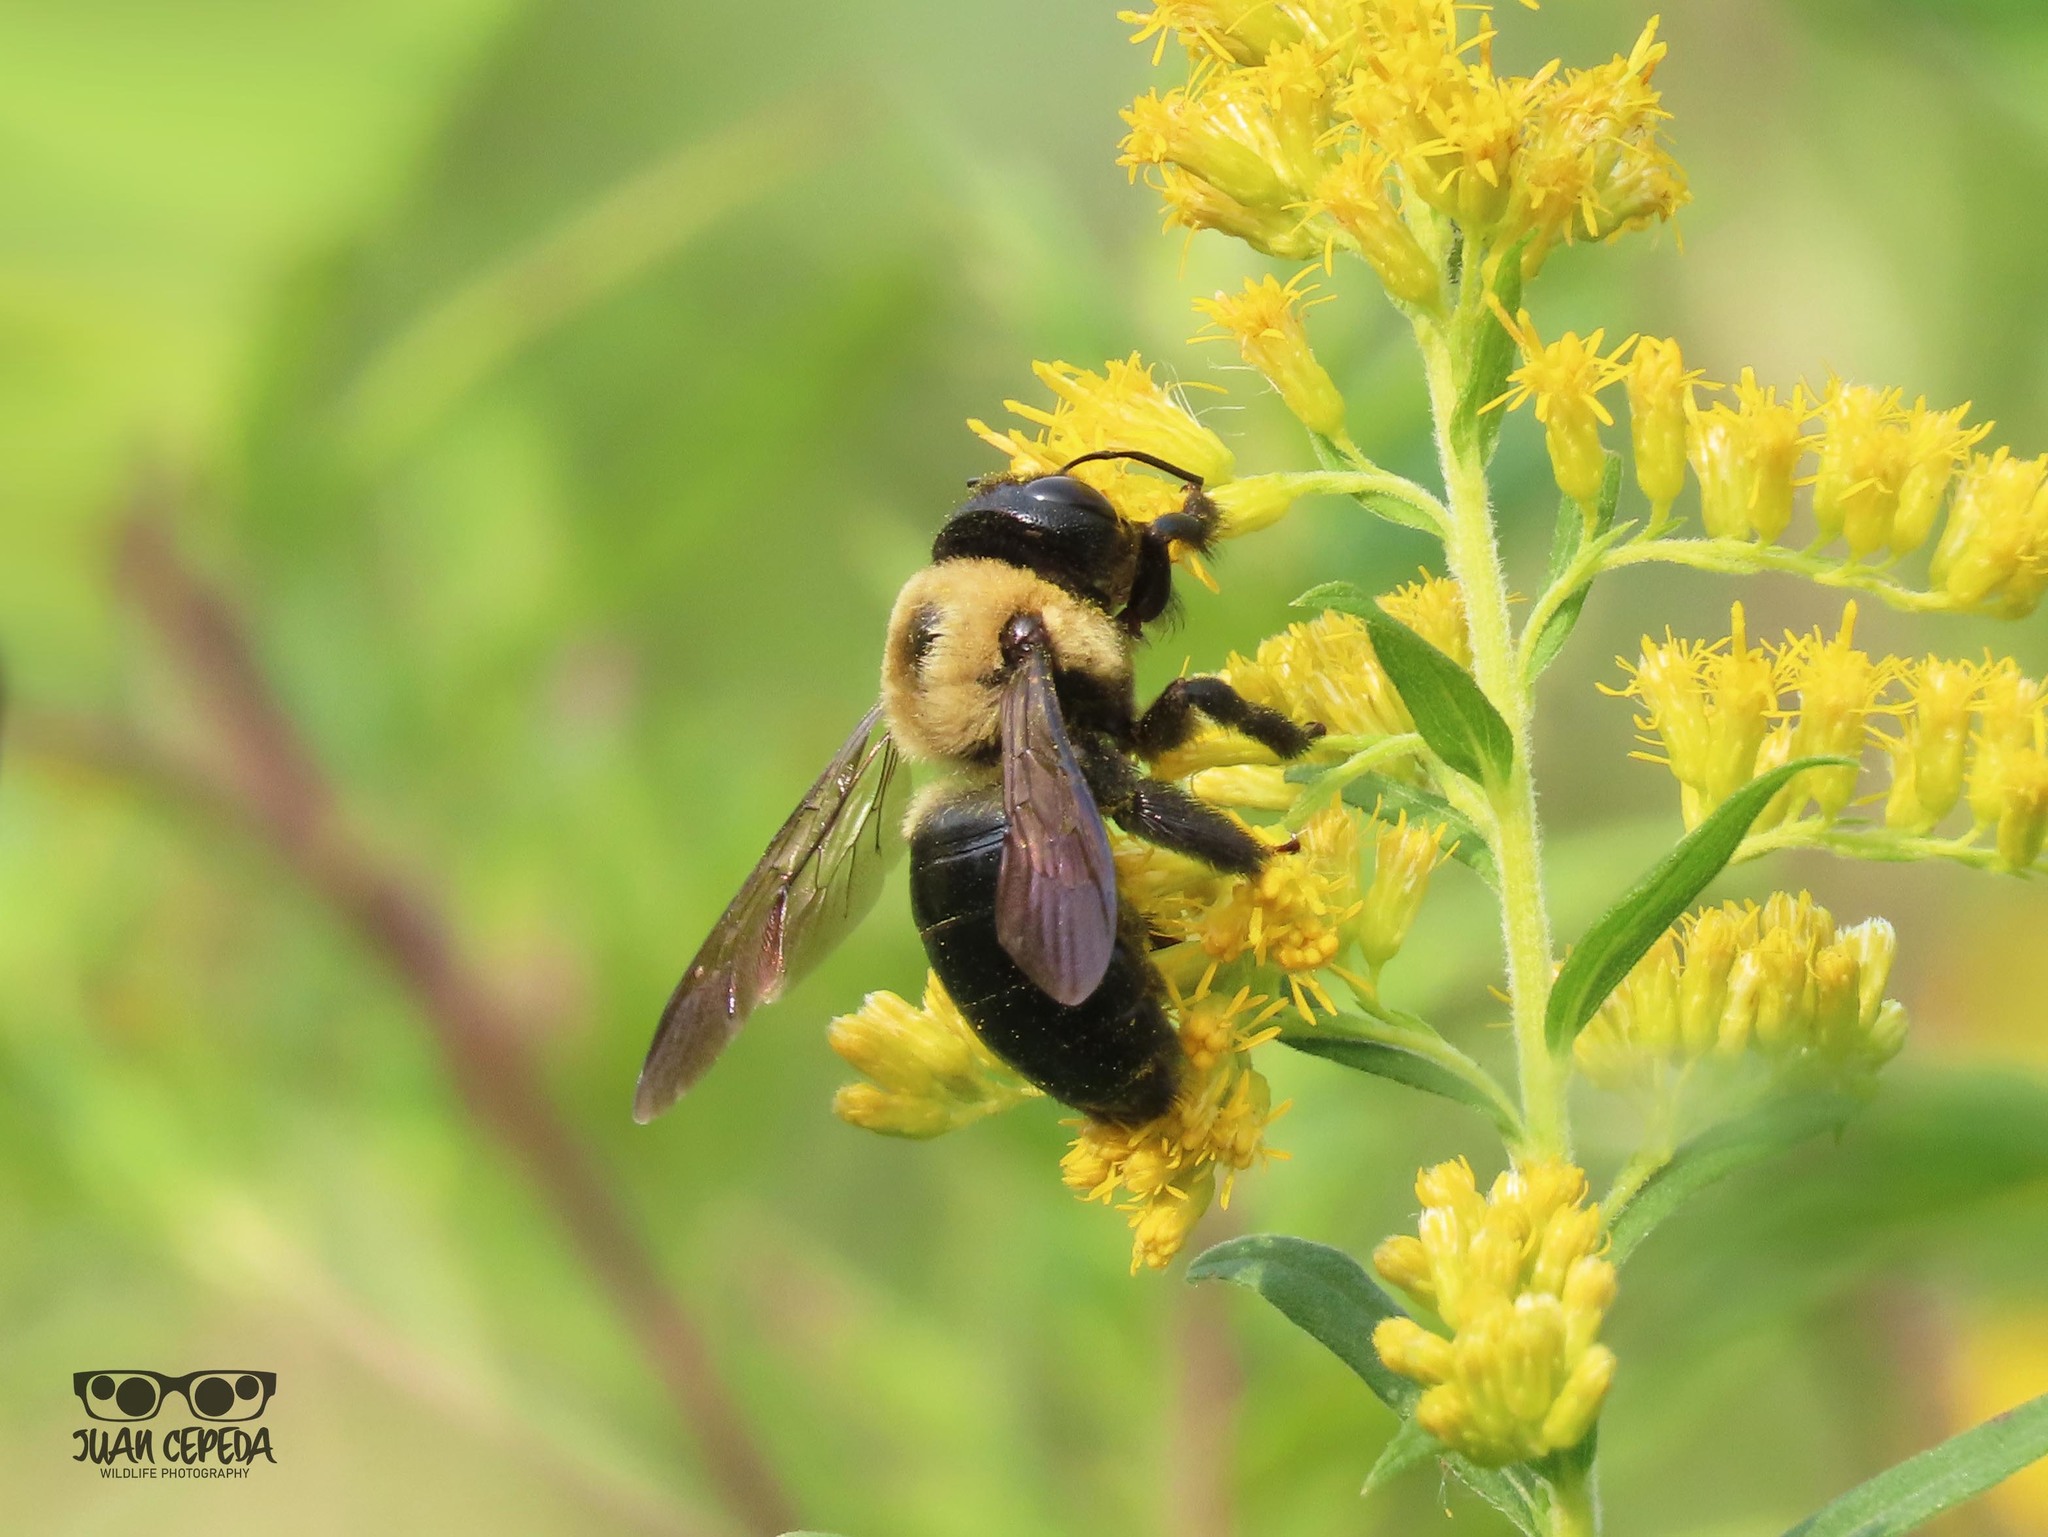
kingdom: Animalia
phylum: Arthropoda
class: Insecta
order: Hymenoptera
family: Apidae
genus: Xylocopa
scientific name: Xylocopa virginica
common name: Carpenter bee
